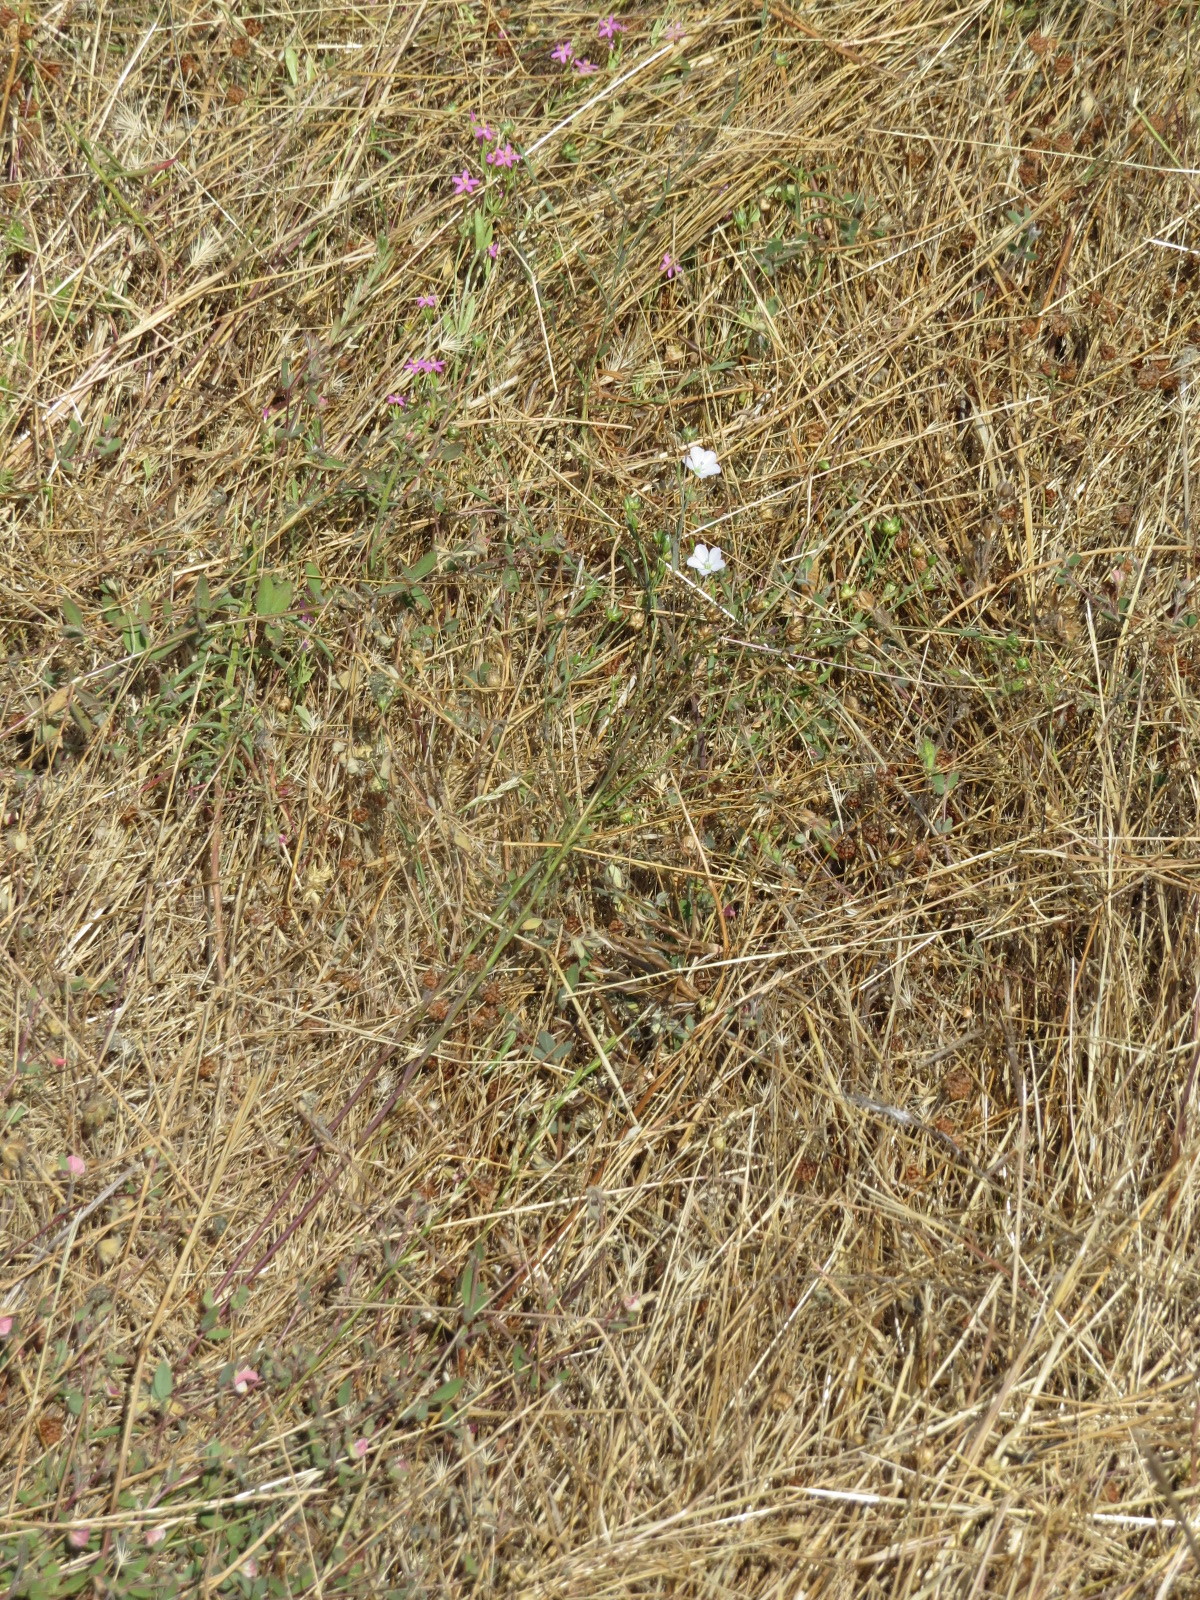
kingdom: Plantae
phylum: Tracheophyta
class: Magnoliopsida
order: Malpighiales
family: Linaceae
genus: Linum
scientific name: Linum bienne
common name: Pale flax
